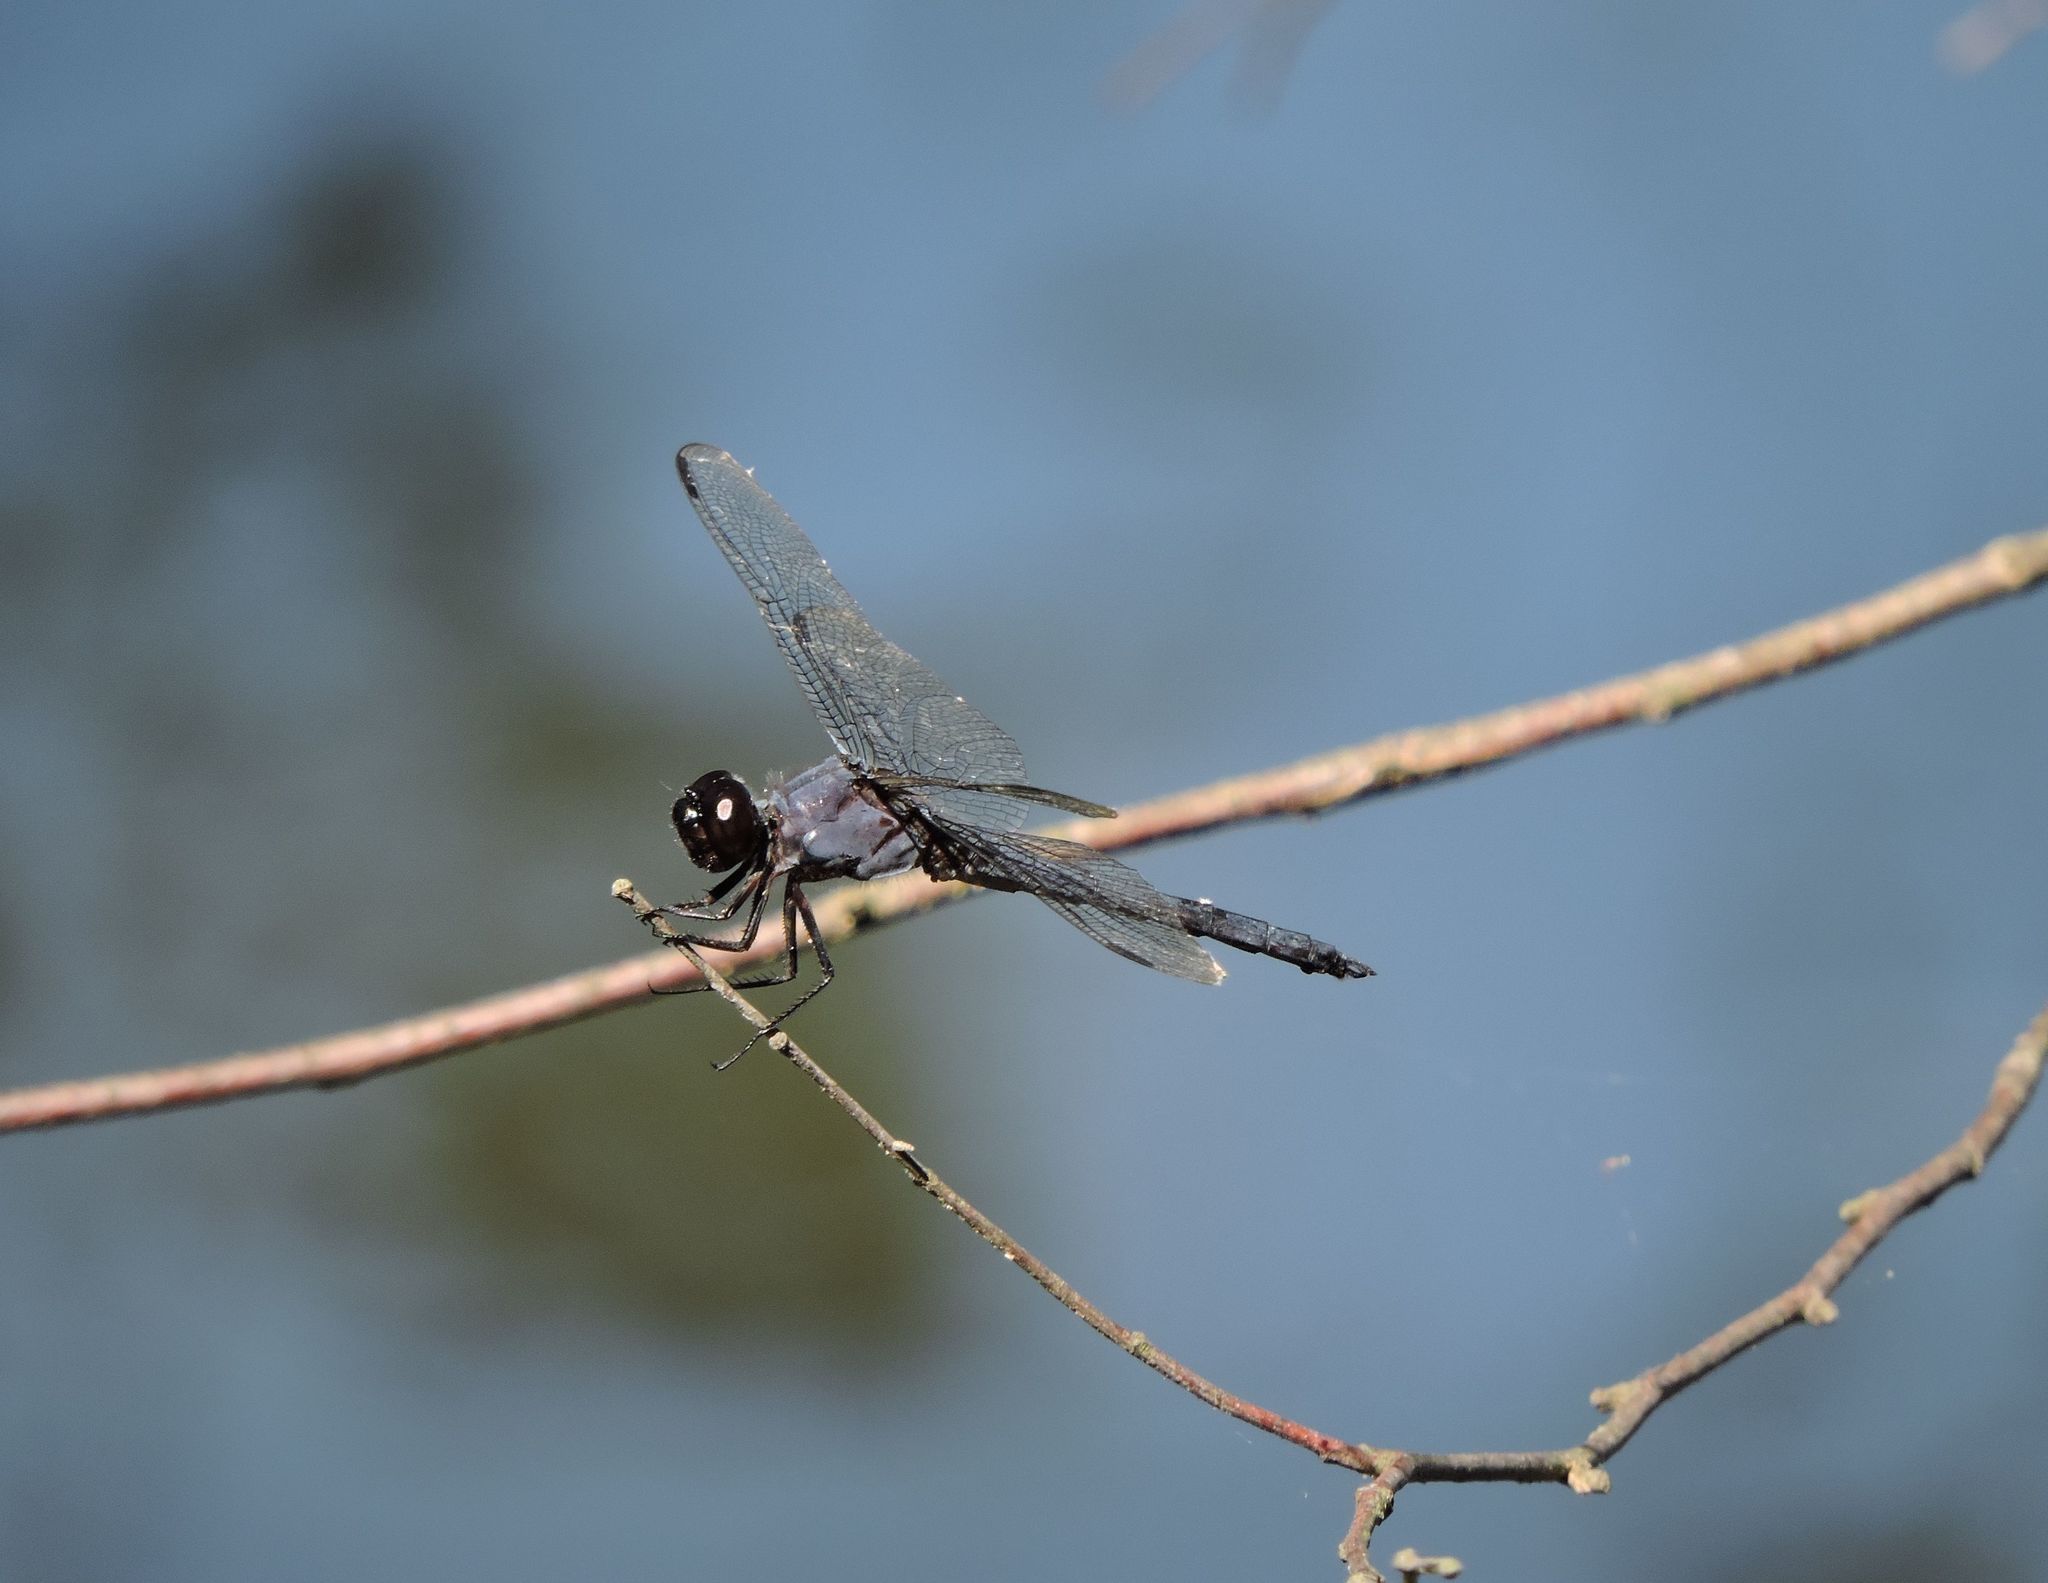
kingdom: Animalia
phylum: Arthropoda
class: Insecta
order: Odonata
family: Libellulidae
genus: Libellula
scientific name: Libellula incesta
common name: Slaty skimmer
